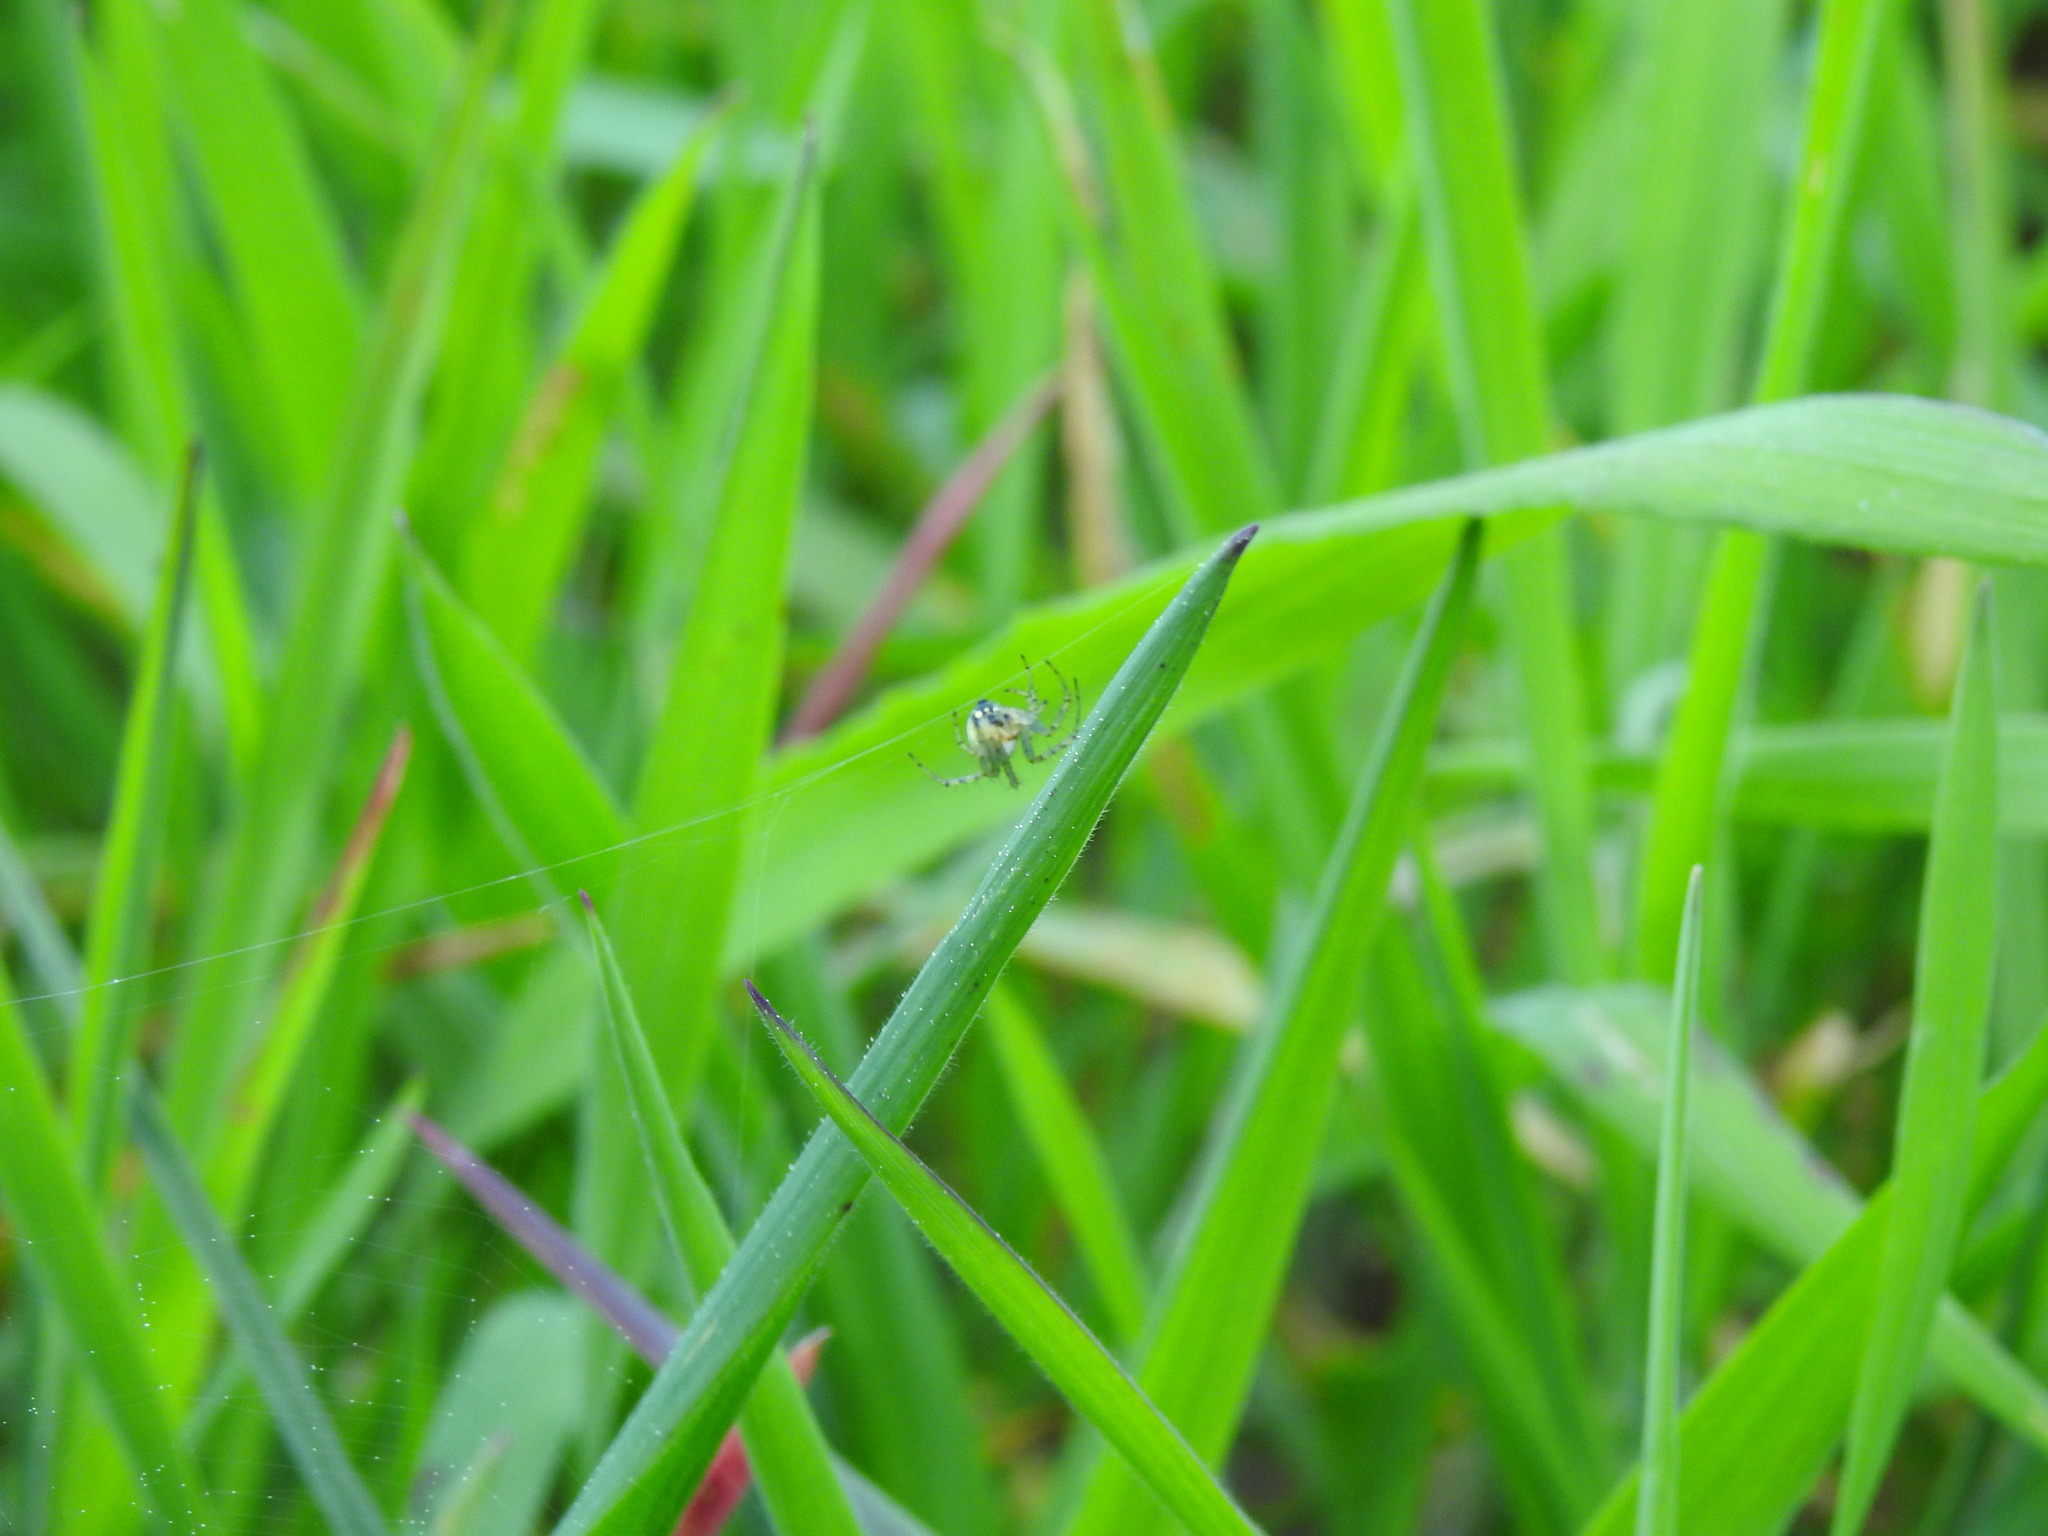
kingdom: Animalia
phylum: Arthropoda
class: Arachnida
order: Araneae
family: Araneidae
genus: Mangora
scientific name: Mangora acalypha
